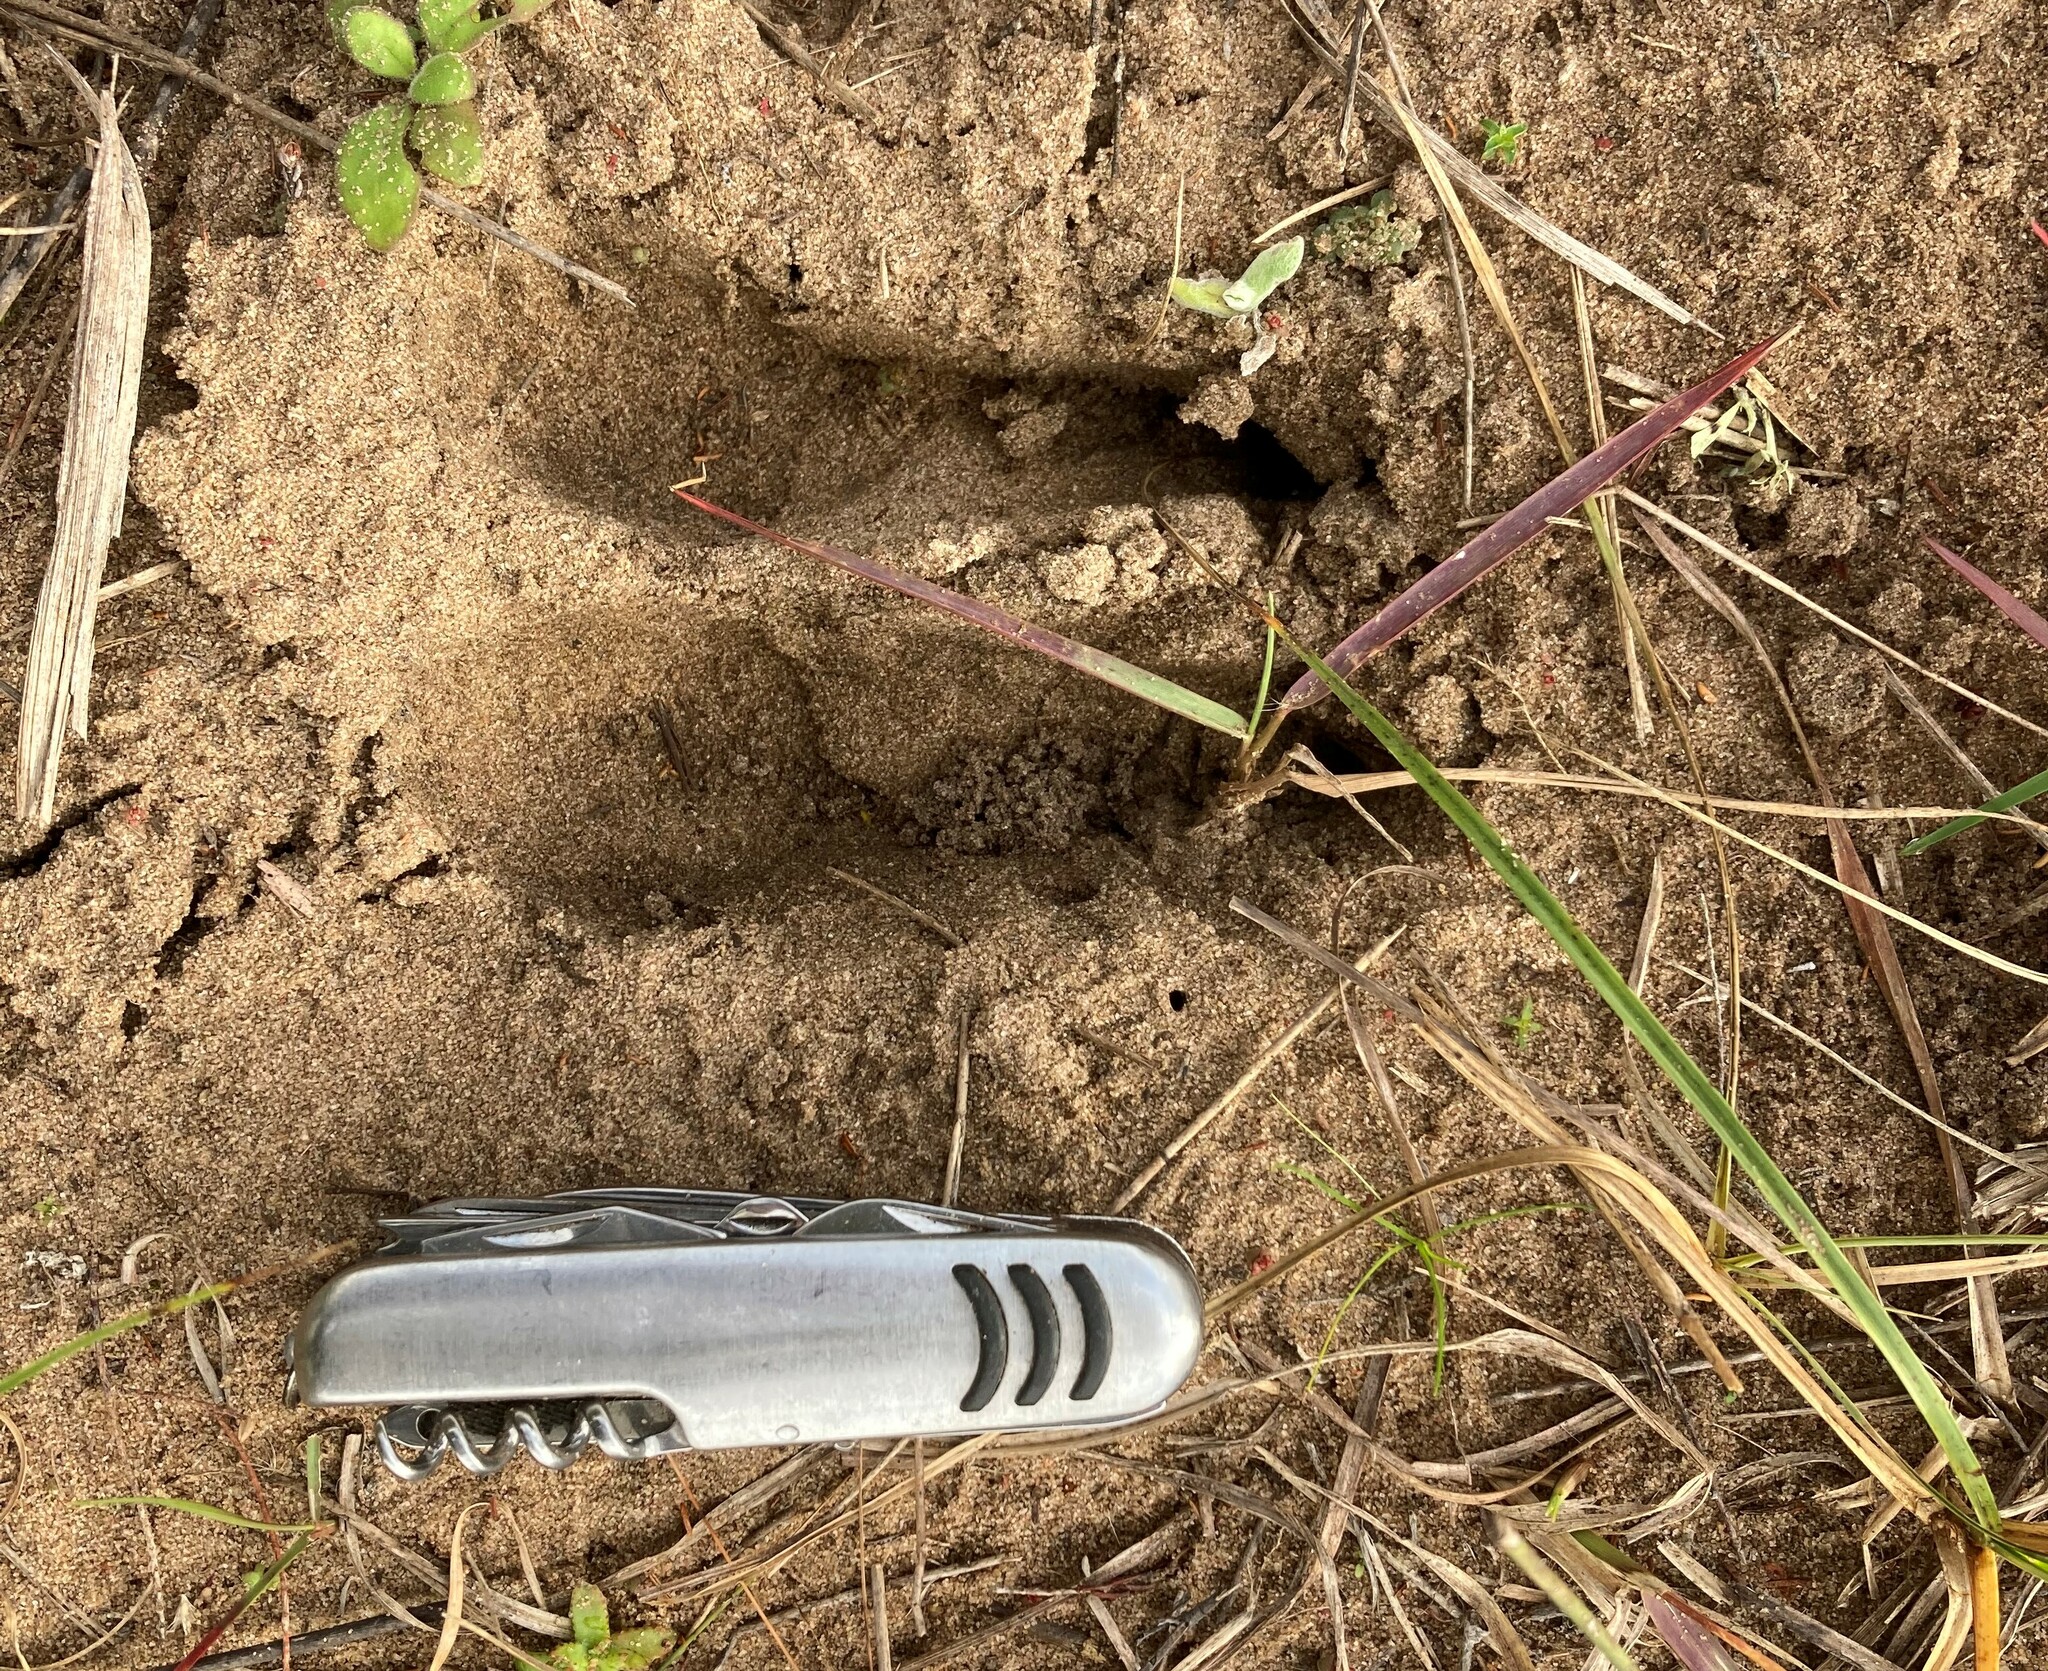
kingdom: Animalia
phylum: Chordata
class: Mammalia
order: Artiodactyla
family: Cervidae
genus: Dama
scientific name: Dama dama
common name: Fallow deer
